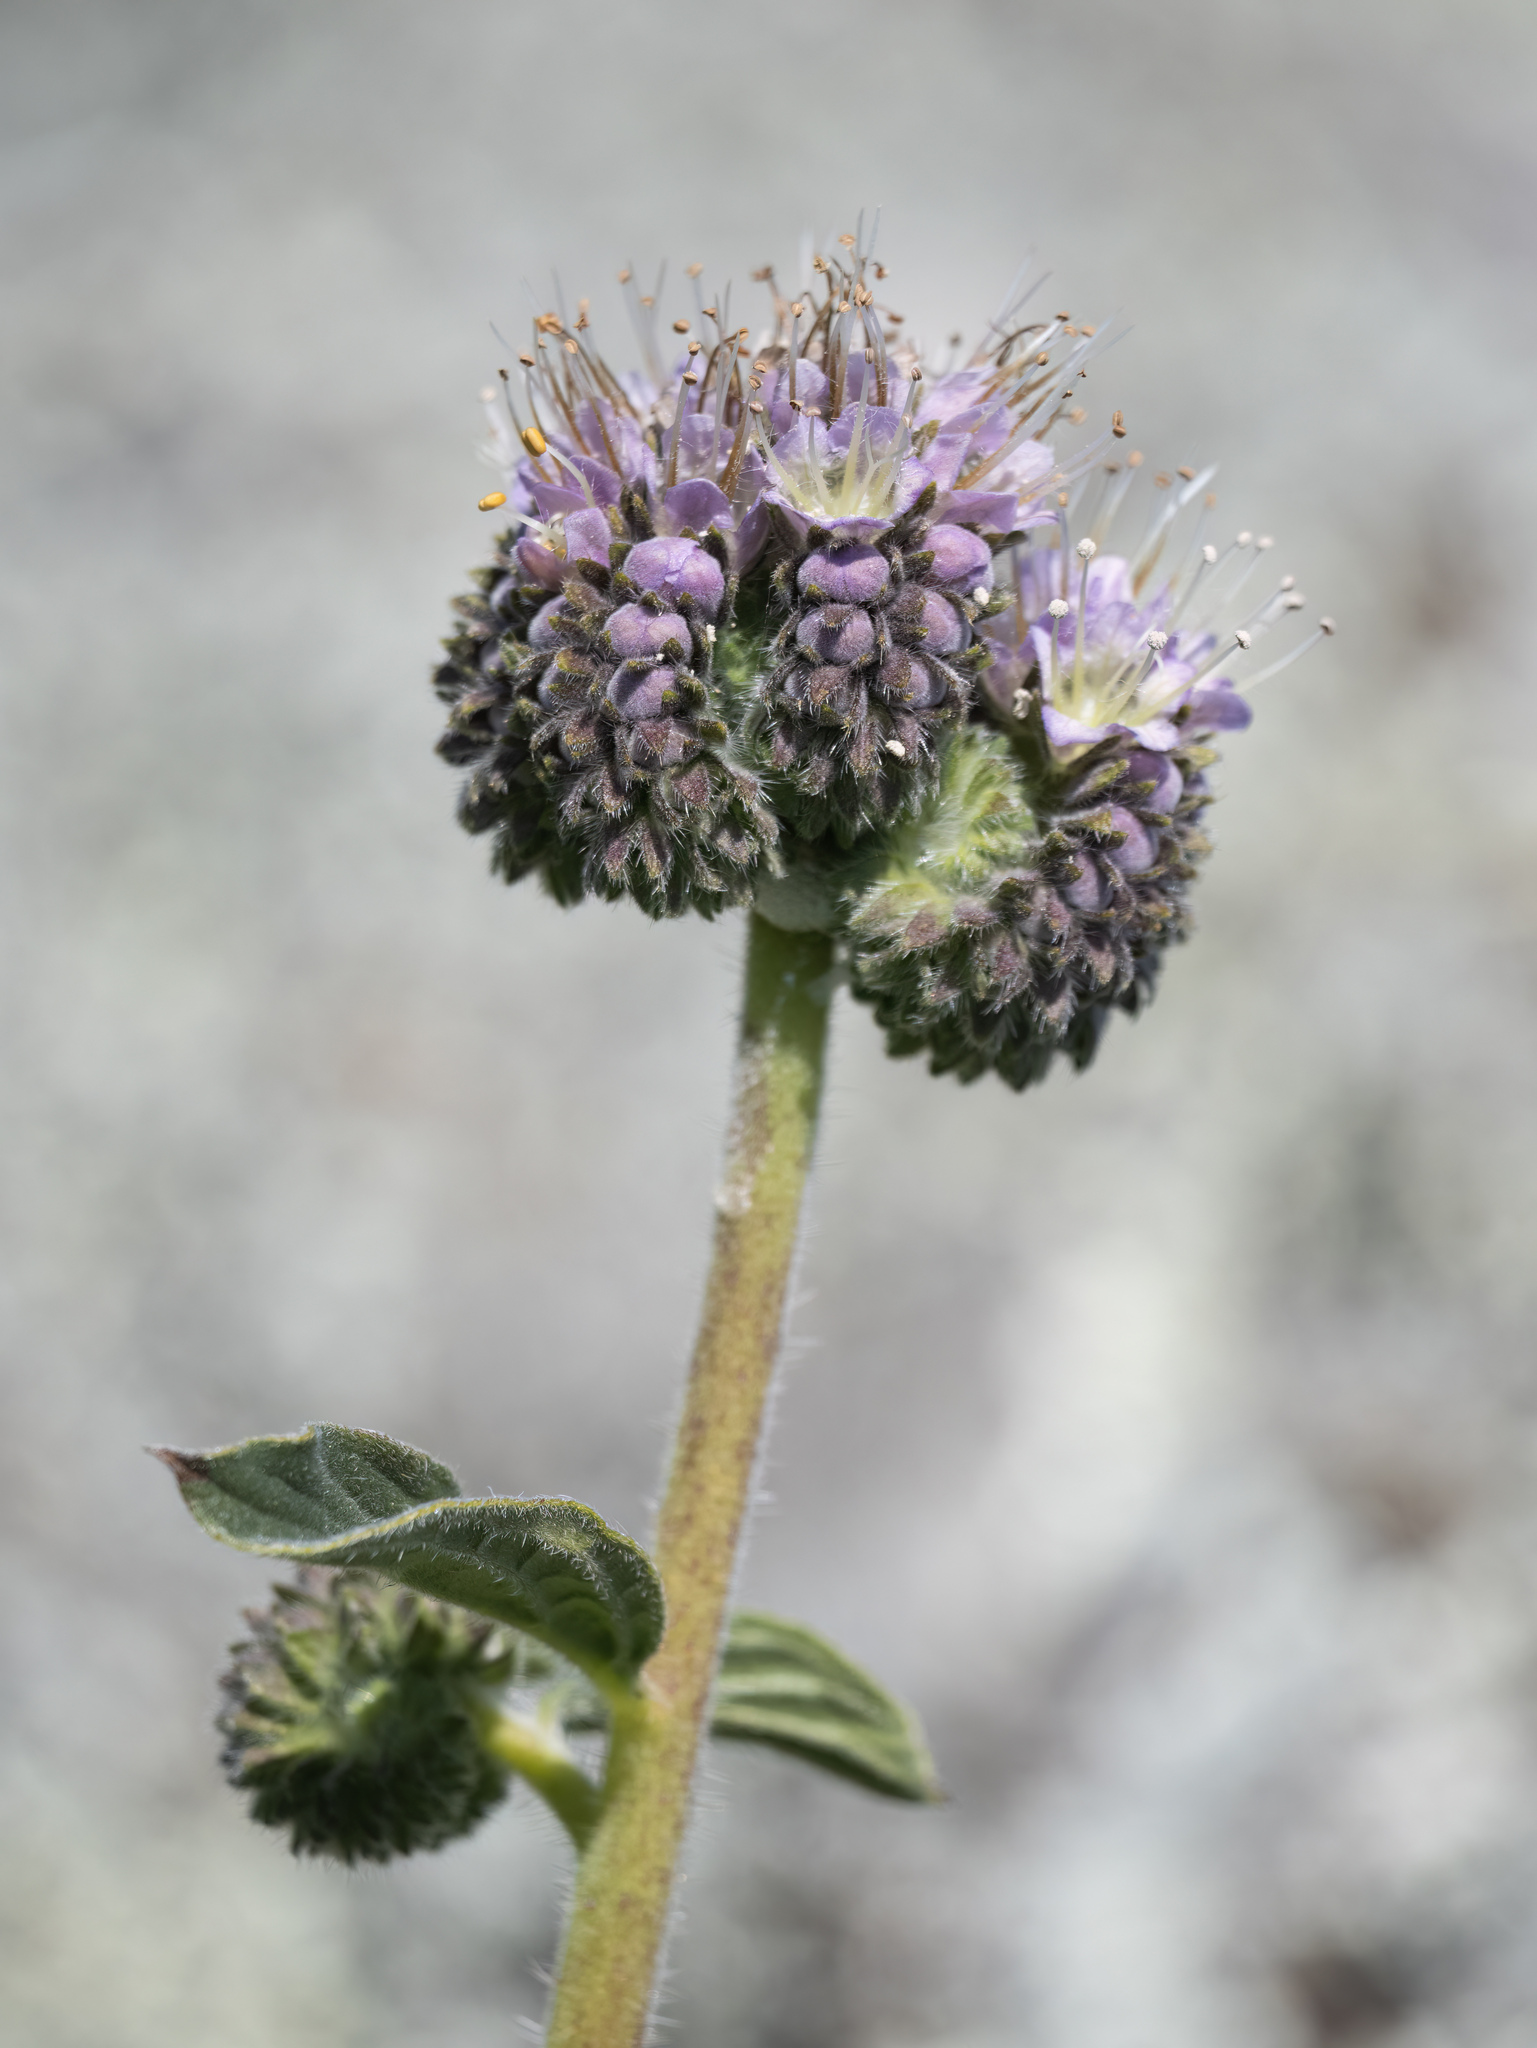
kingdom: Plantae
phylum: Tracheophyta
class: Magnoliopsida
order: Boraginales
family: Hydrophyllaceae
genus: Phacelia
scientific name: Phacelia californica
